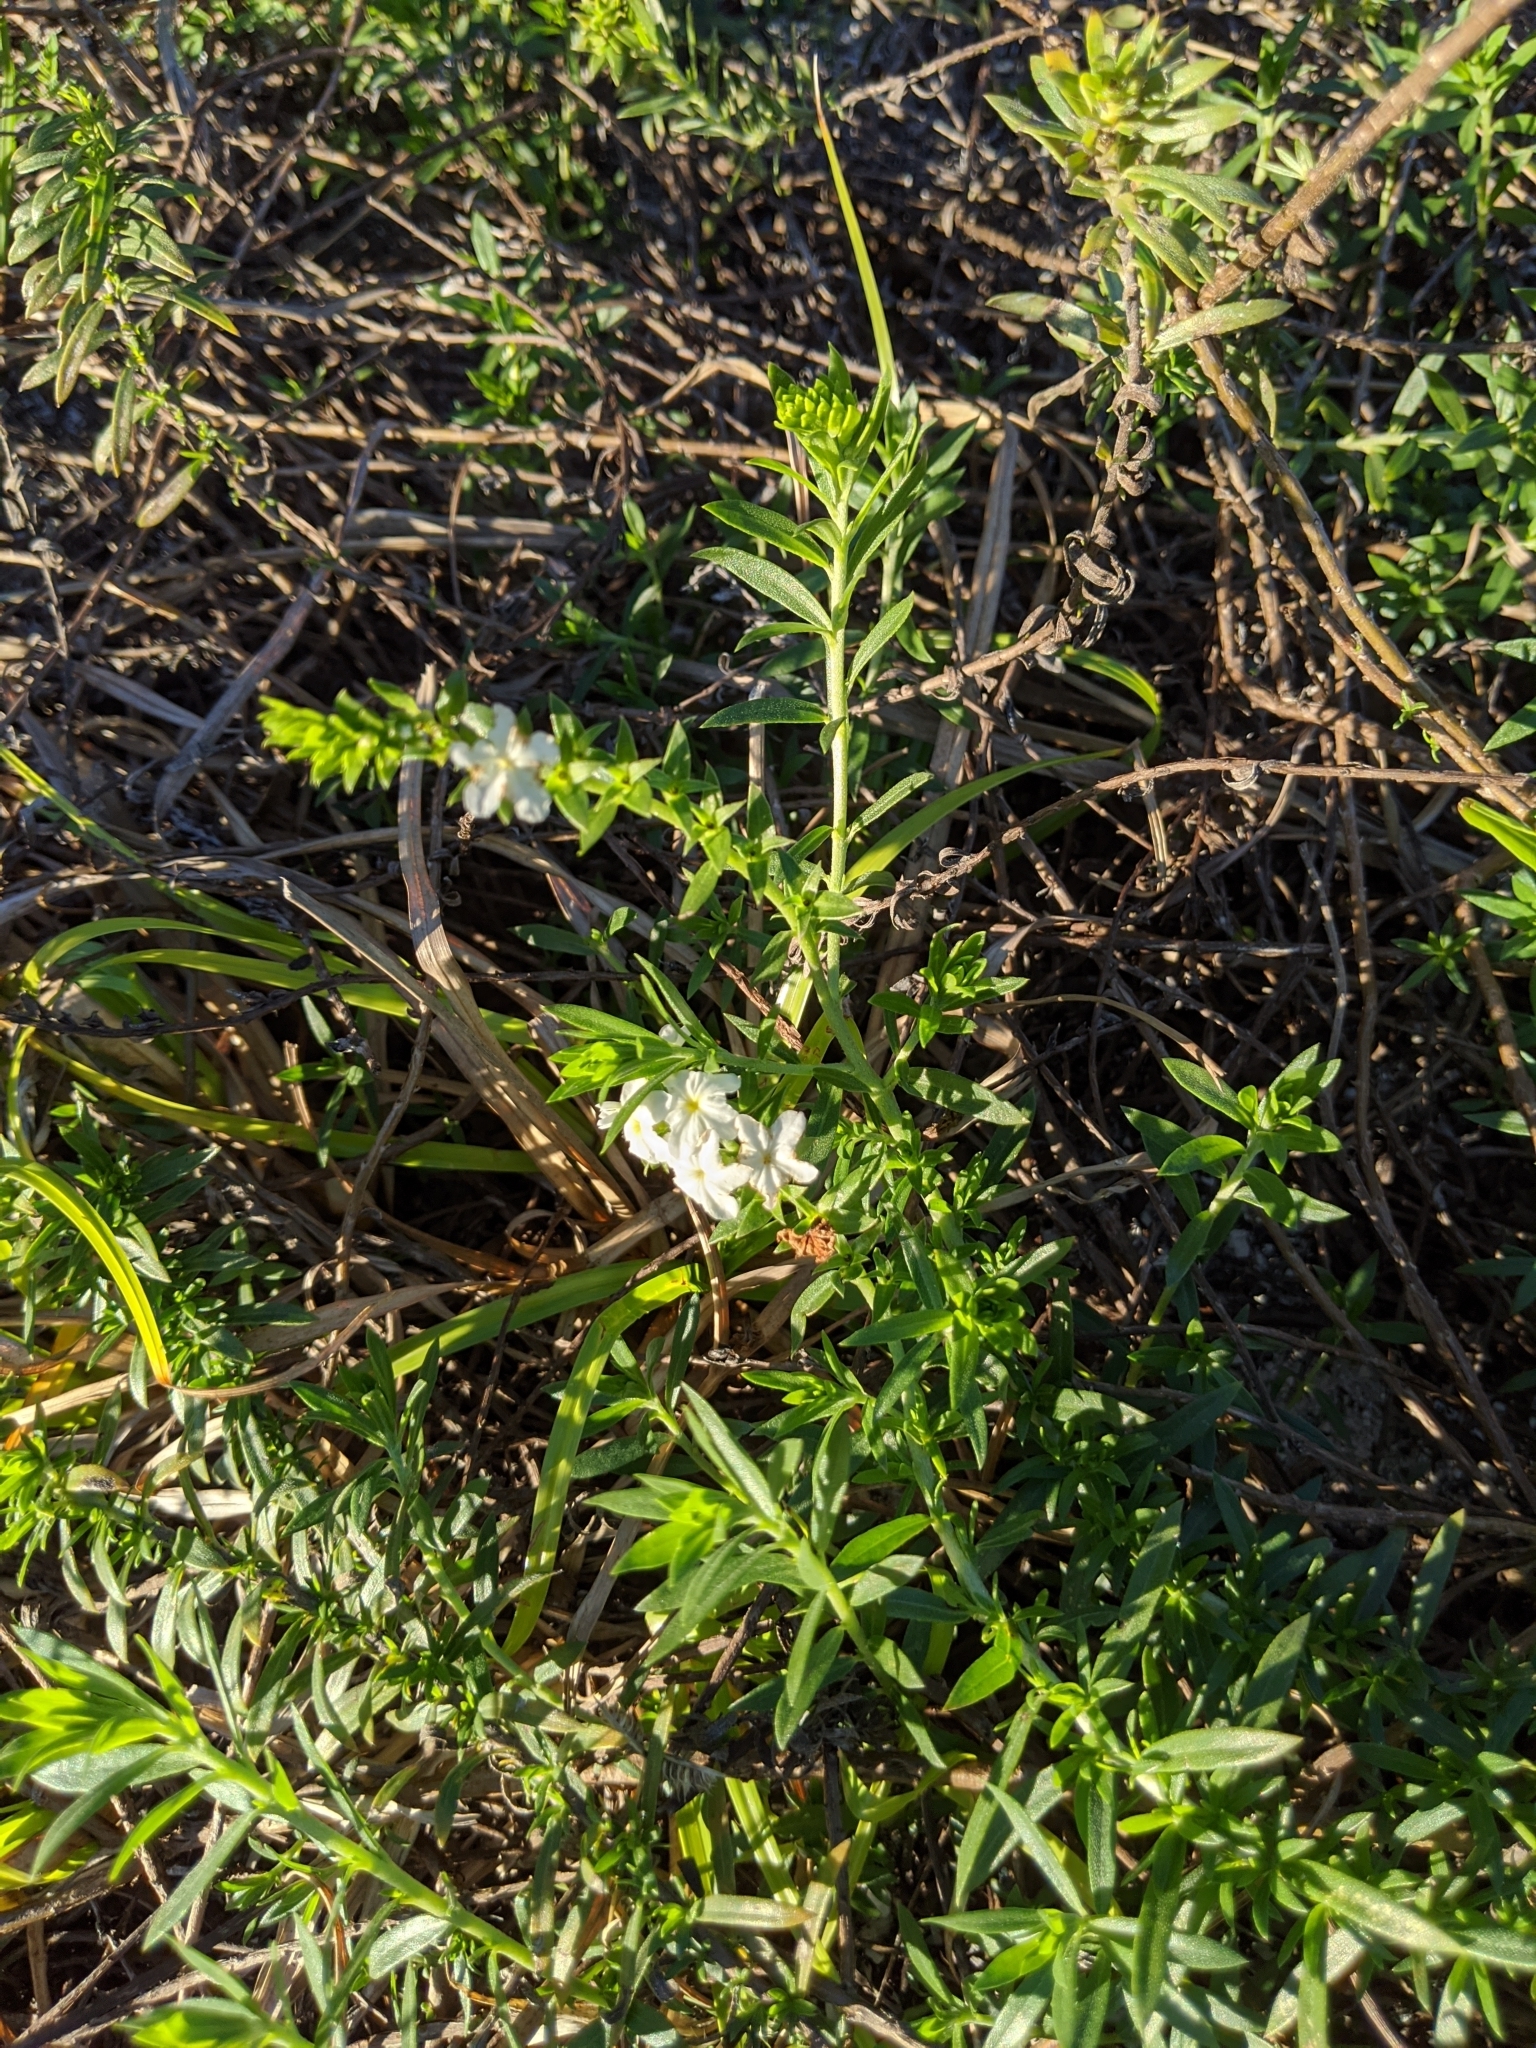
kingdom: Plantae
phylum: Tracheophyta
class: Magnoliopsida
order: Boraginales
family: Heliotropiaceae
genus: Euploca
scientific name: Euploca polyphylla
